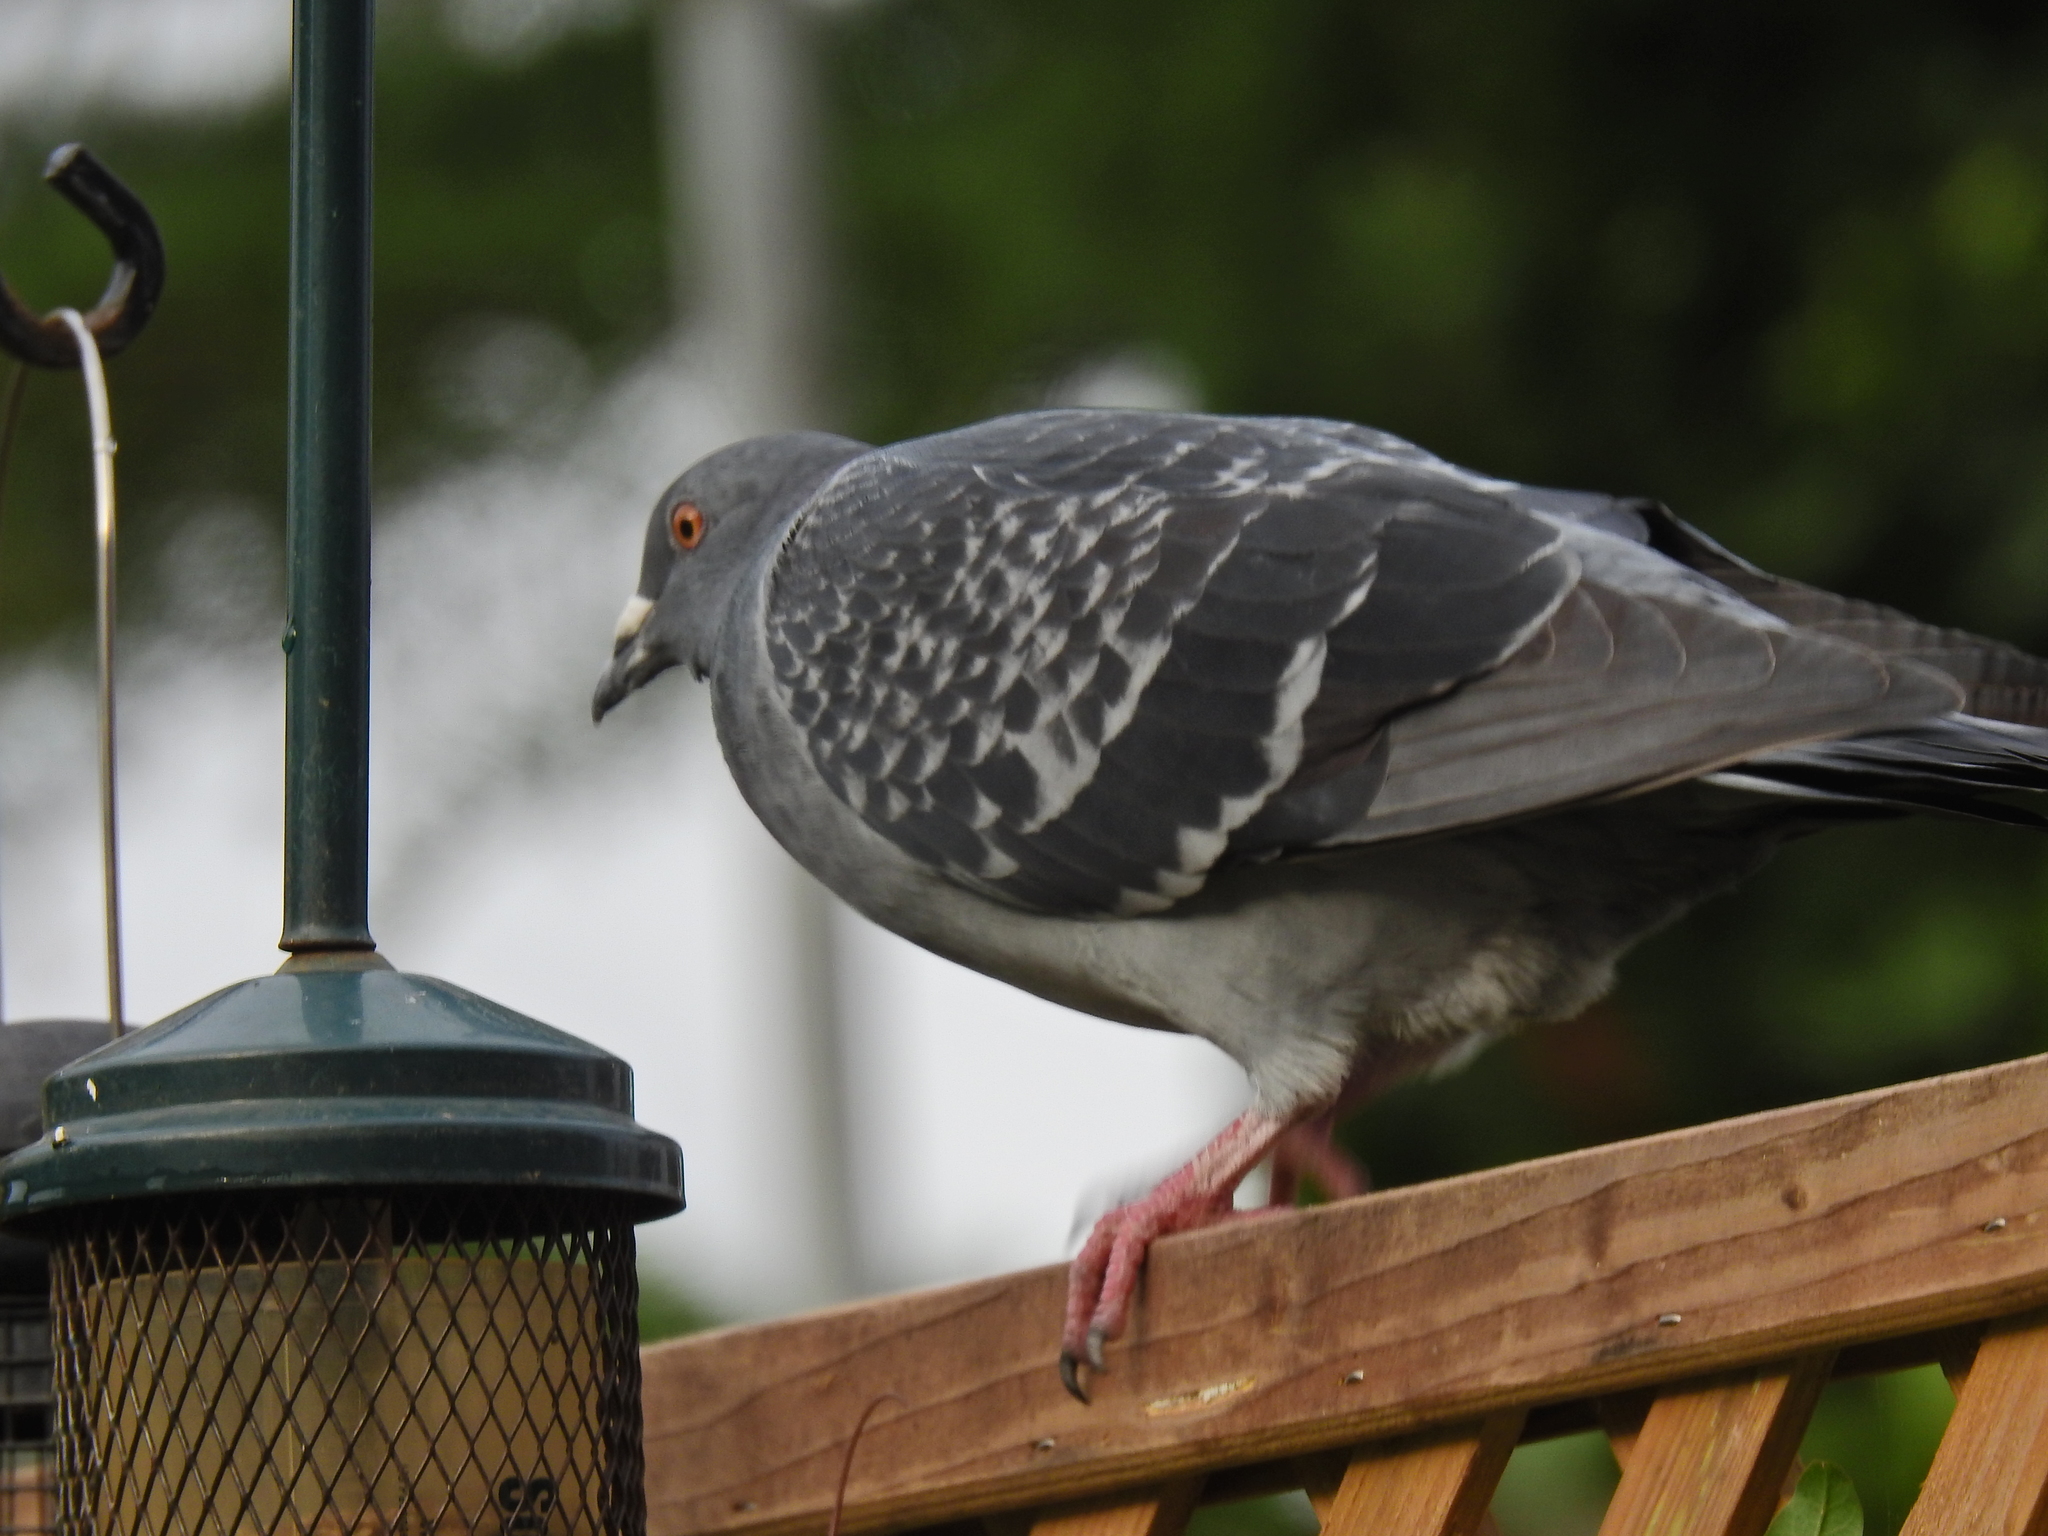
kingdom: Animalia
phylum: Chordata
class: Aves
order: Columbiformes
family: Columbidae
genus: Columba
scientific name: Columba livia
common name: Rock pigeon
